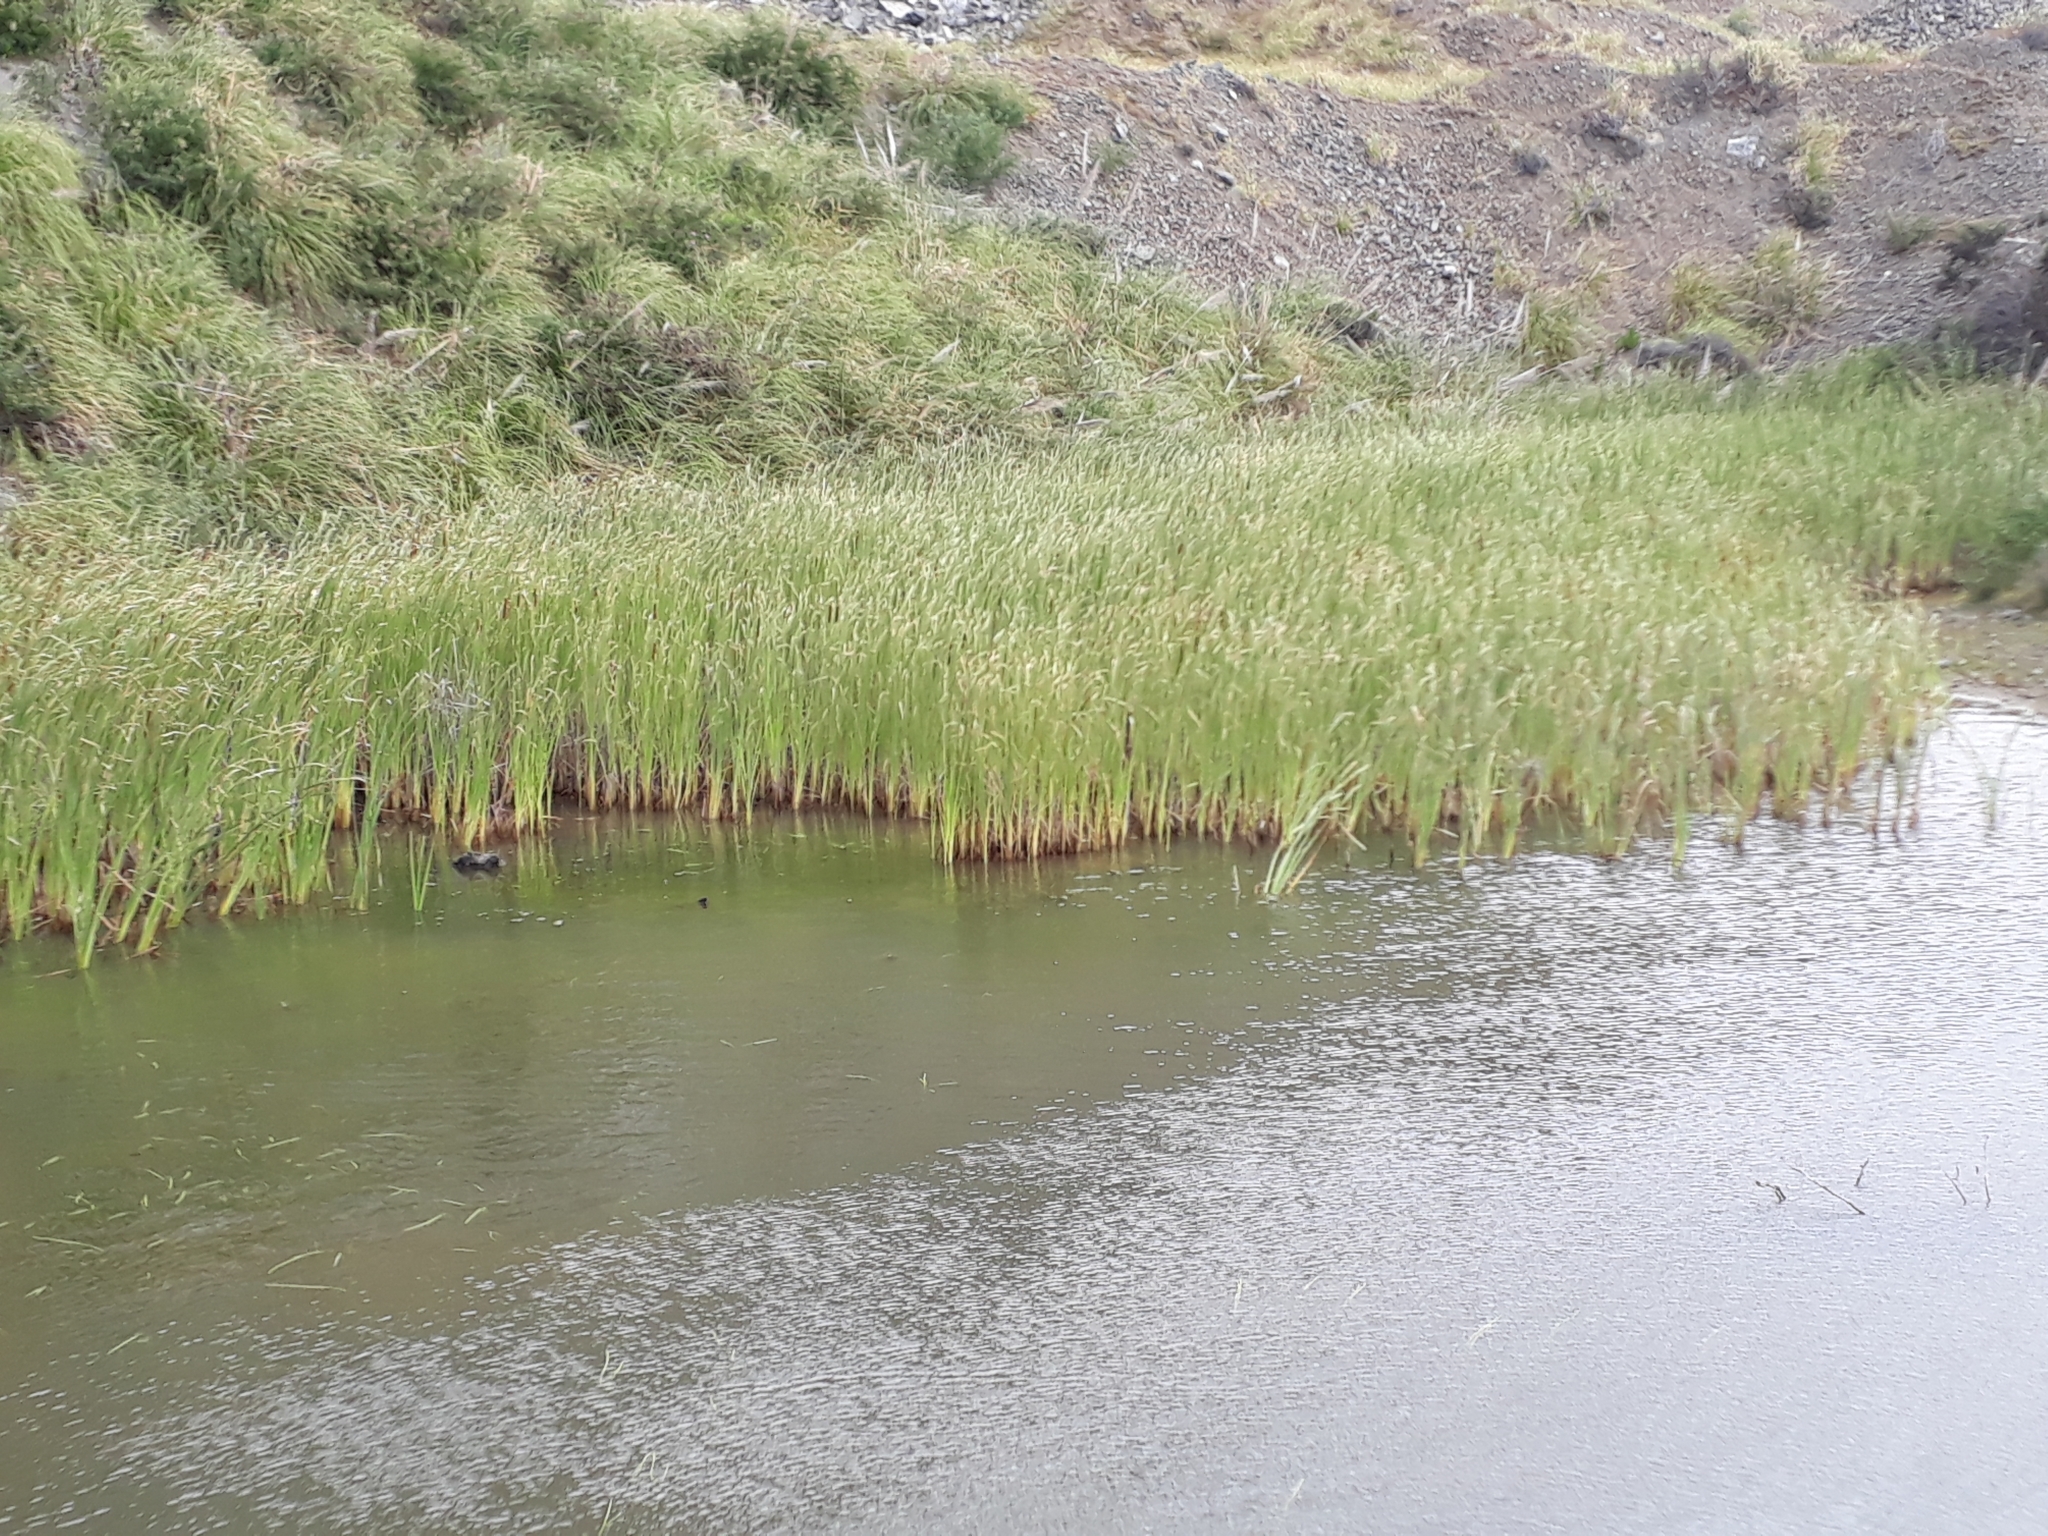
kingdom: Plantae
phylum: Tracheophyta
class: Liliopsida
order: Poales
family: Typhaceae
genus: Typha
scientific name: Typha orientalis
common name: Bullrush
